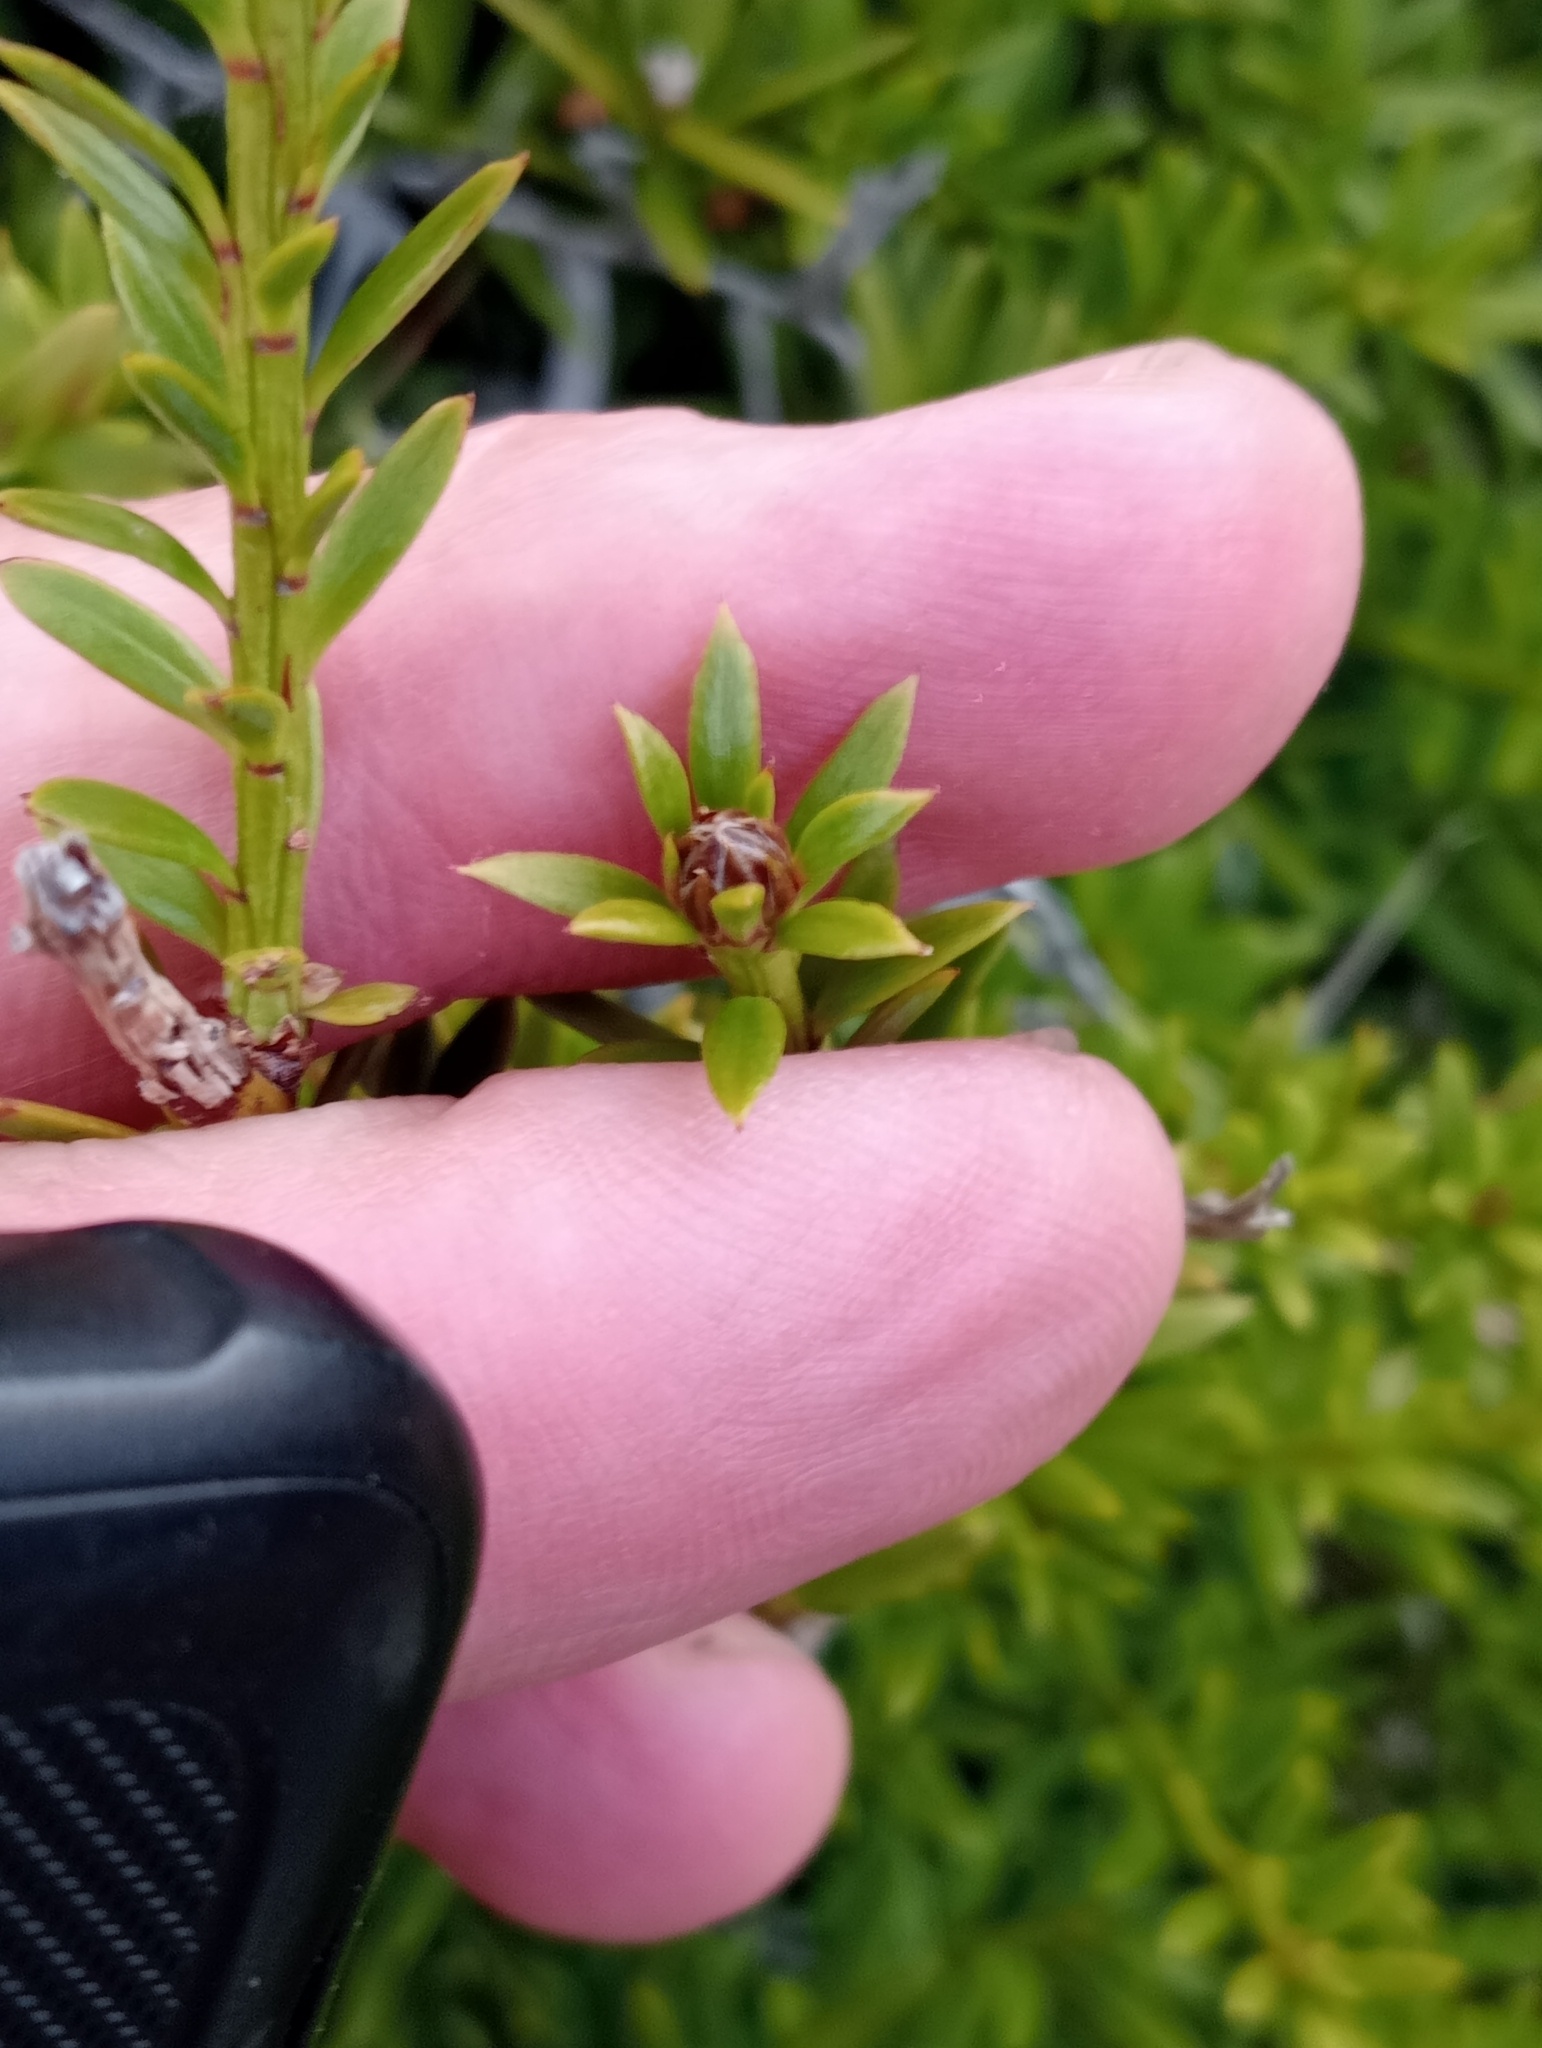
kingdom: Plantae
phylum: Tracheophyta
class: Pinopsida
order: Pinales
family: Podocarpaceae
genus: Podocarpus
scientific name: Podocarpus
